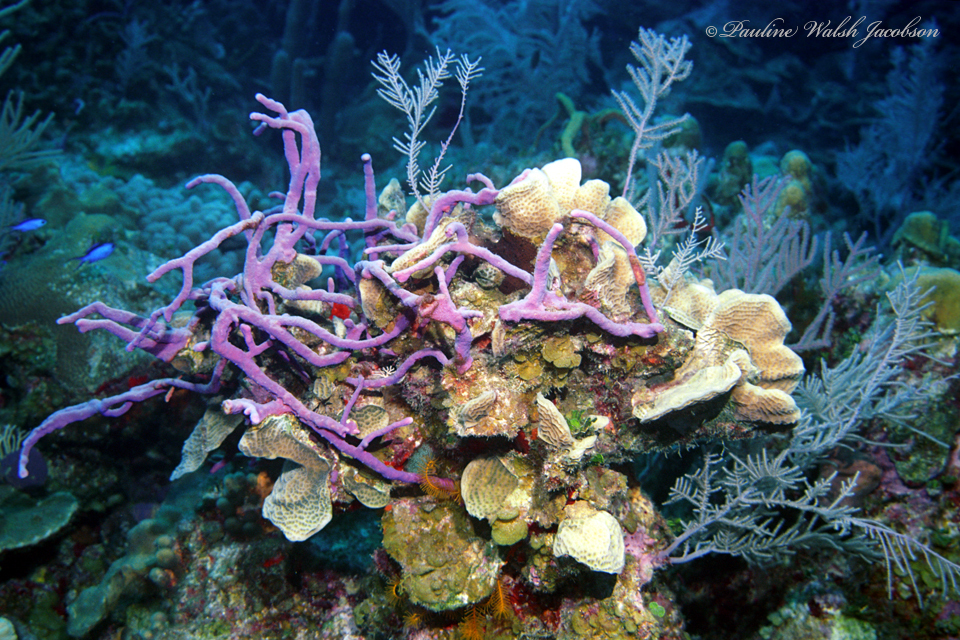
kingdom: Animalia
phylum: Porifera
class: Demospongiae
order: Verongiida
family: Aplysinidae
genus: Aplysina
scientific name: Aplysina cauliformis
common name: Branching candle sponge
